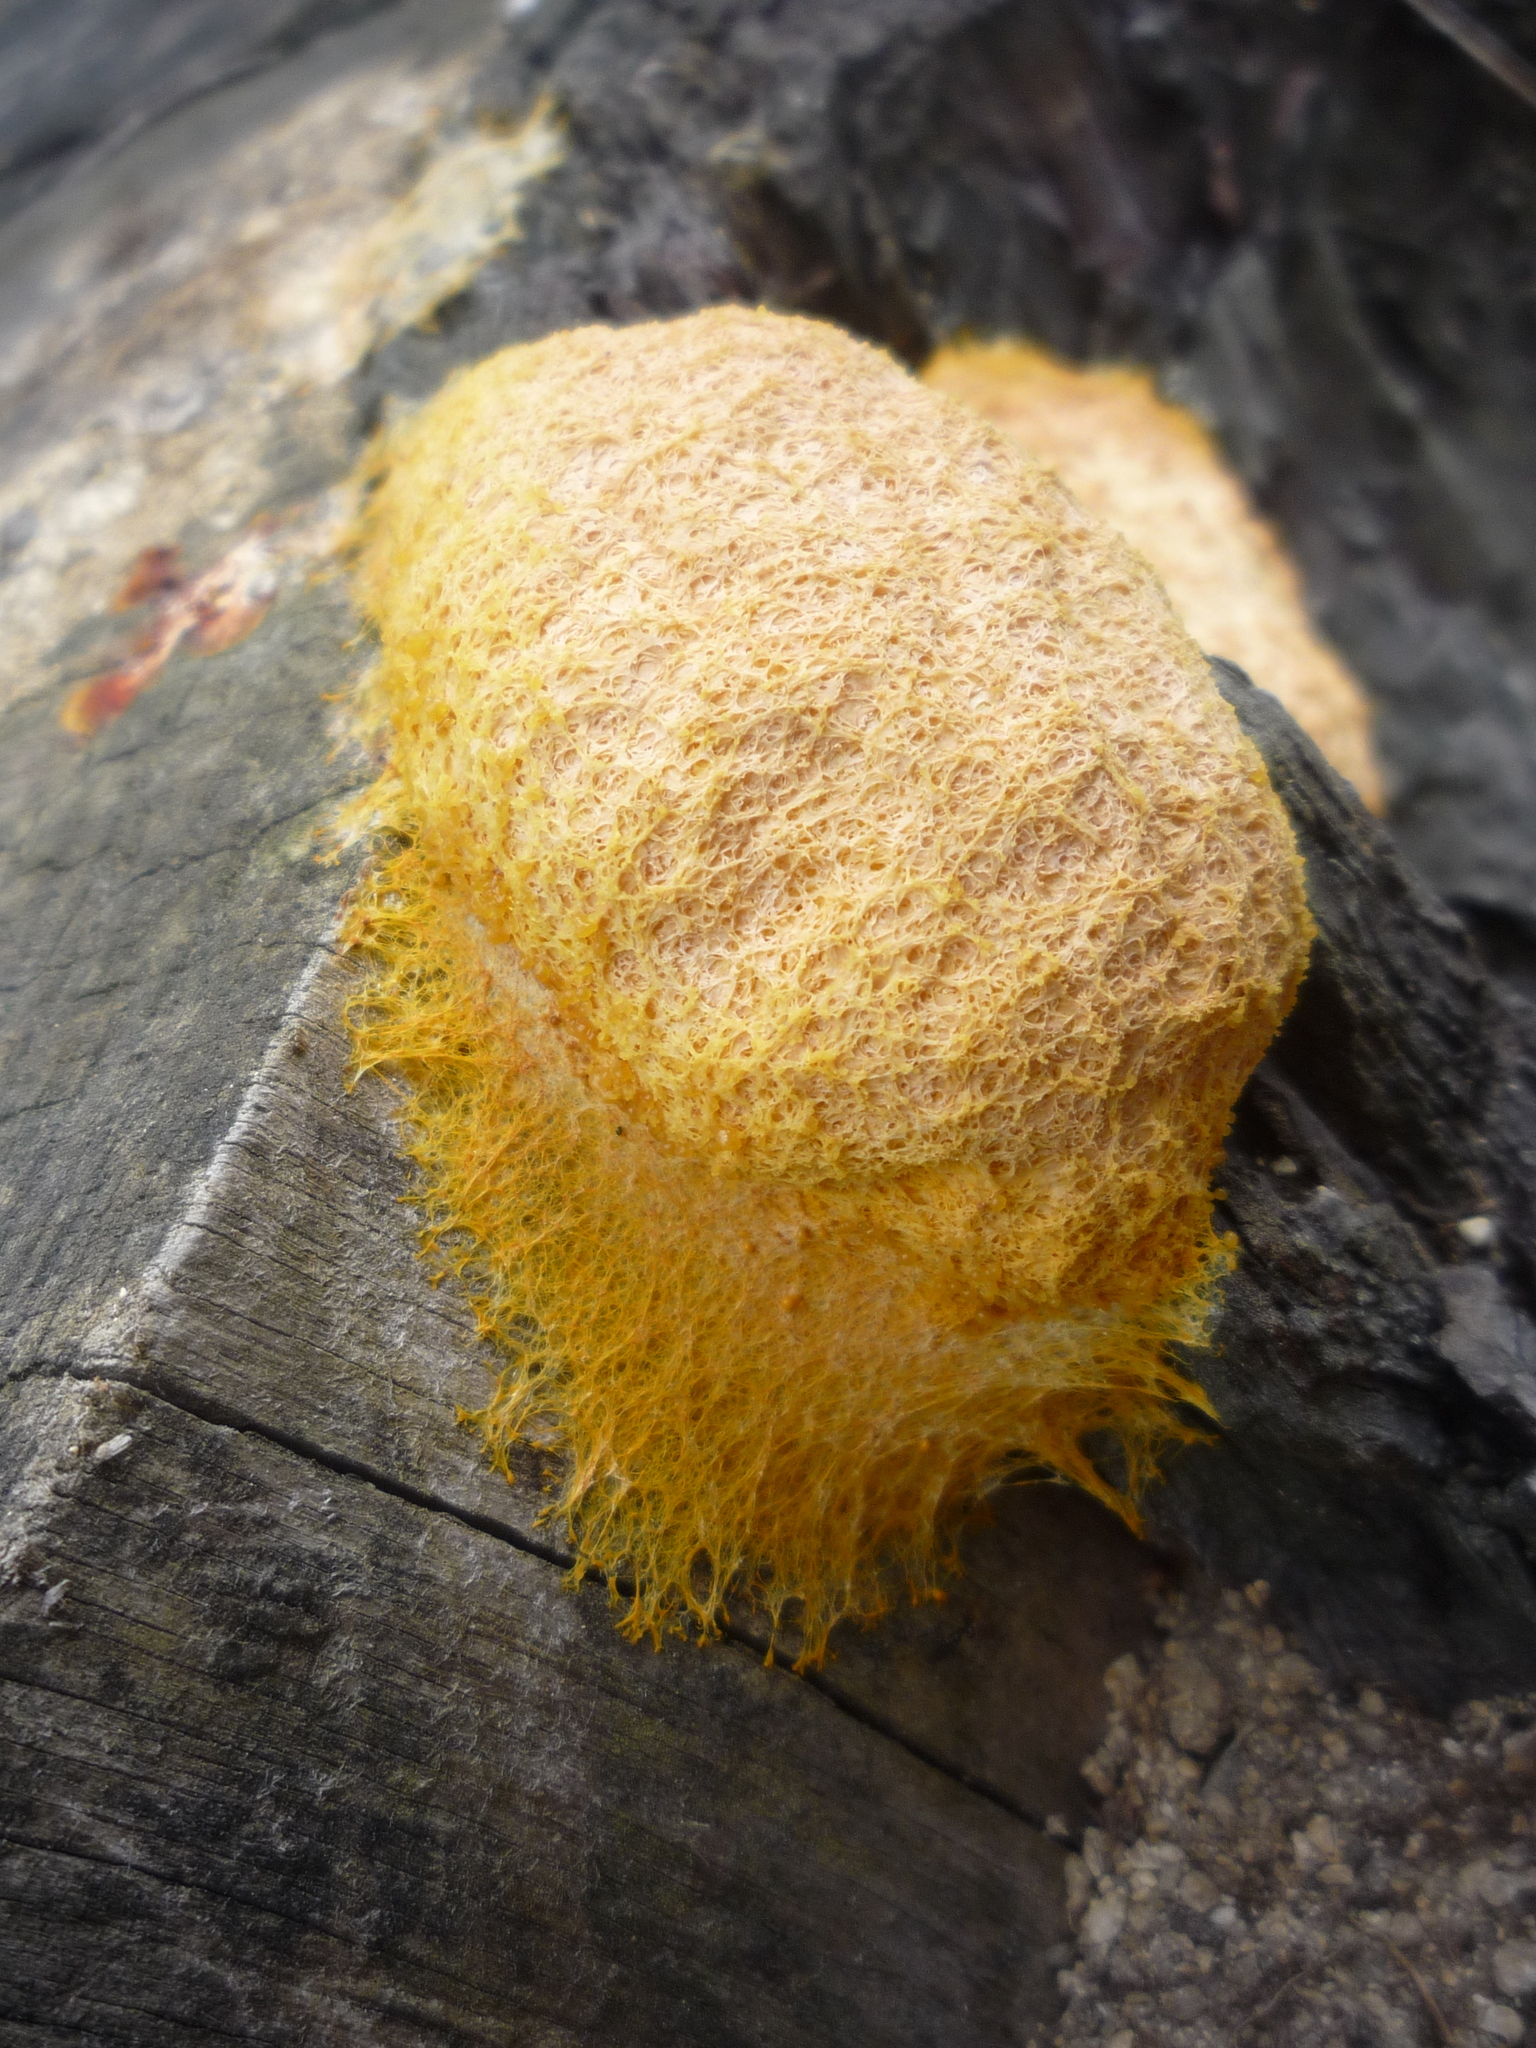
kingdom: Protozoa
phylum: Mycetozoa
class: Myxomycetes
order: Physarales
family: Physaraceae
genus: Fuligo
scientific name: Fuligo septica
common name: Dog vomit slime mold
